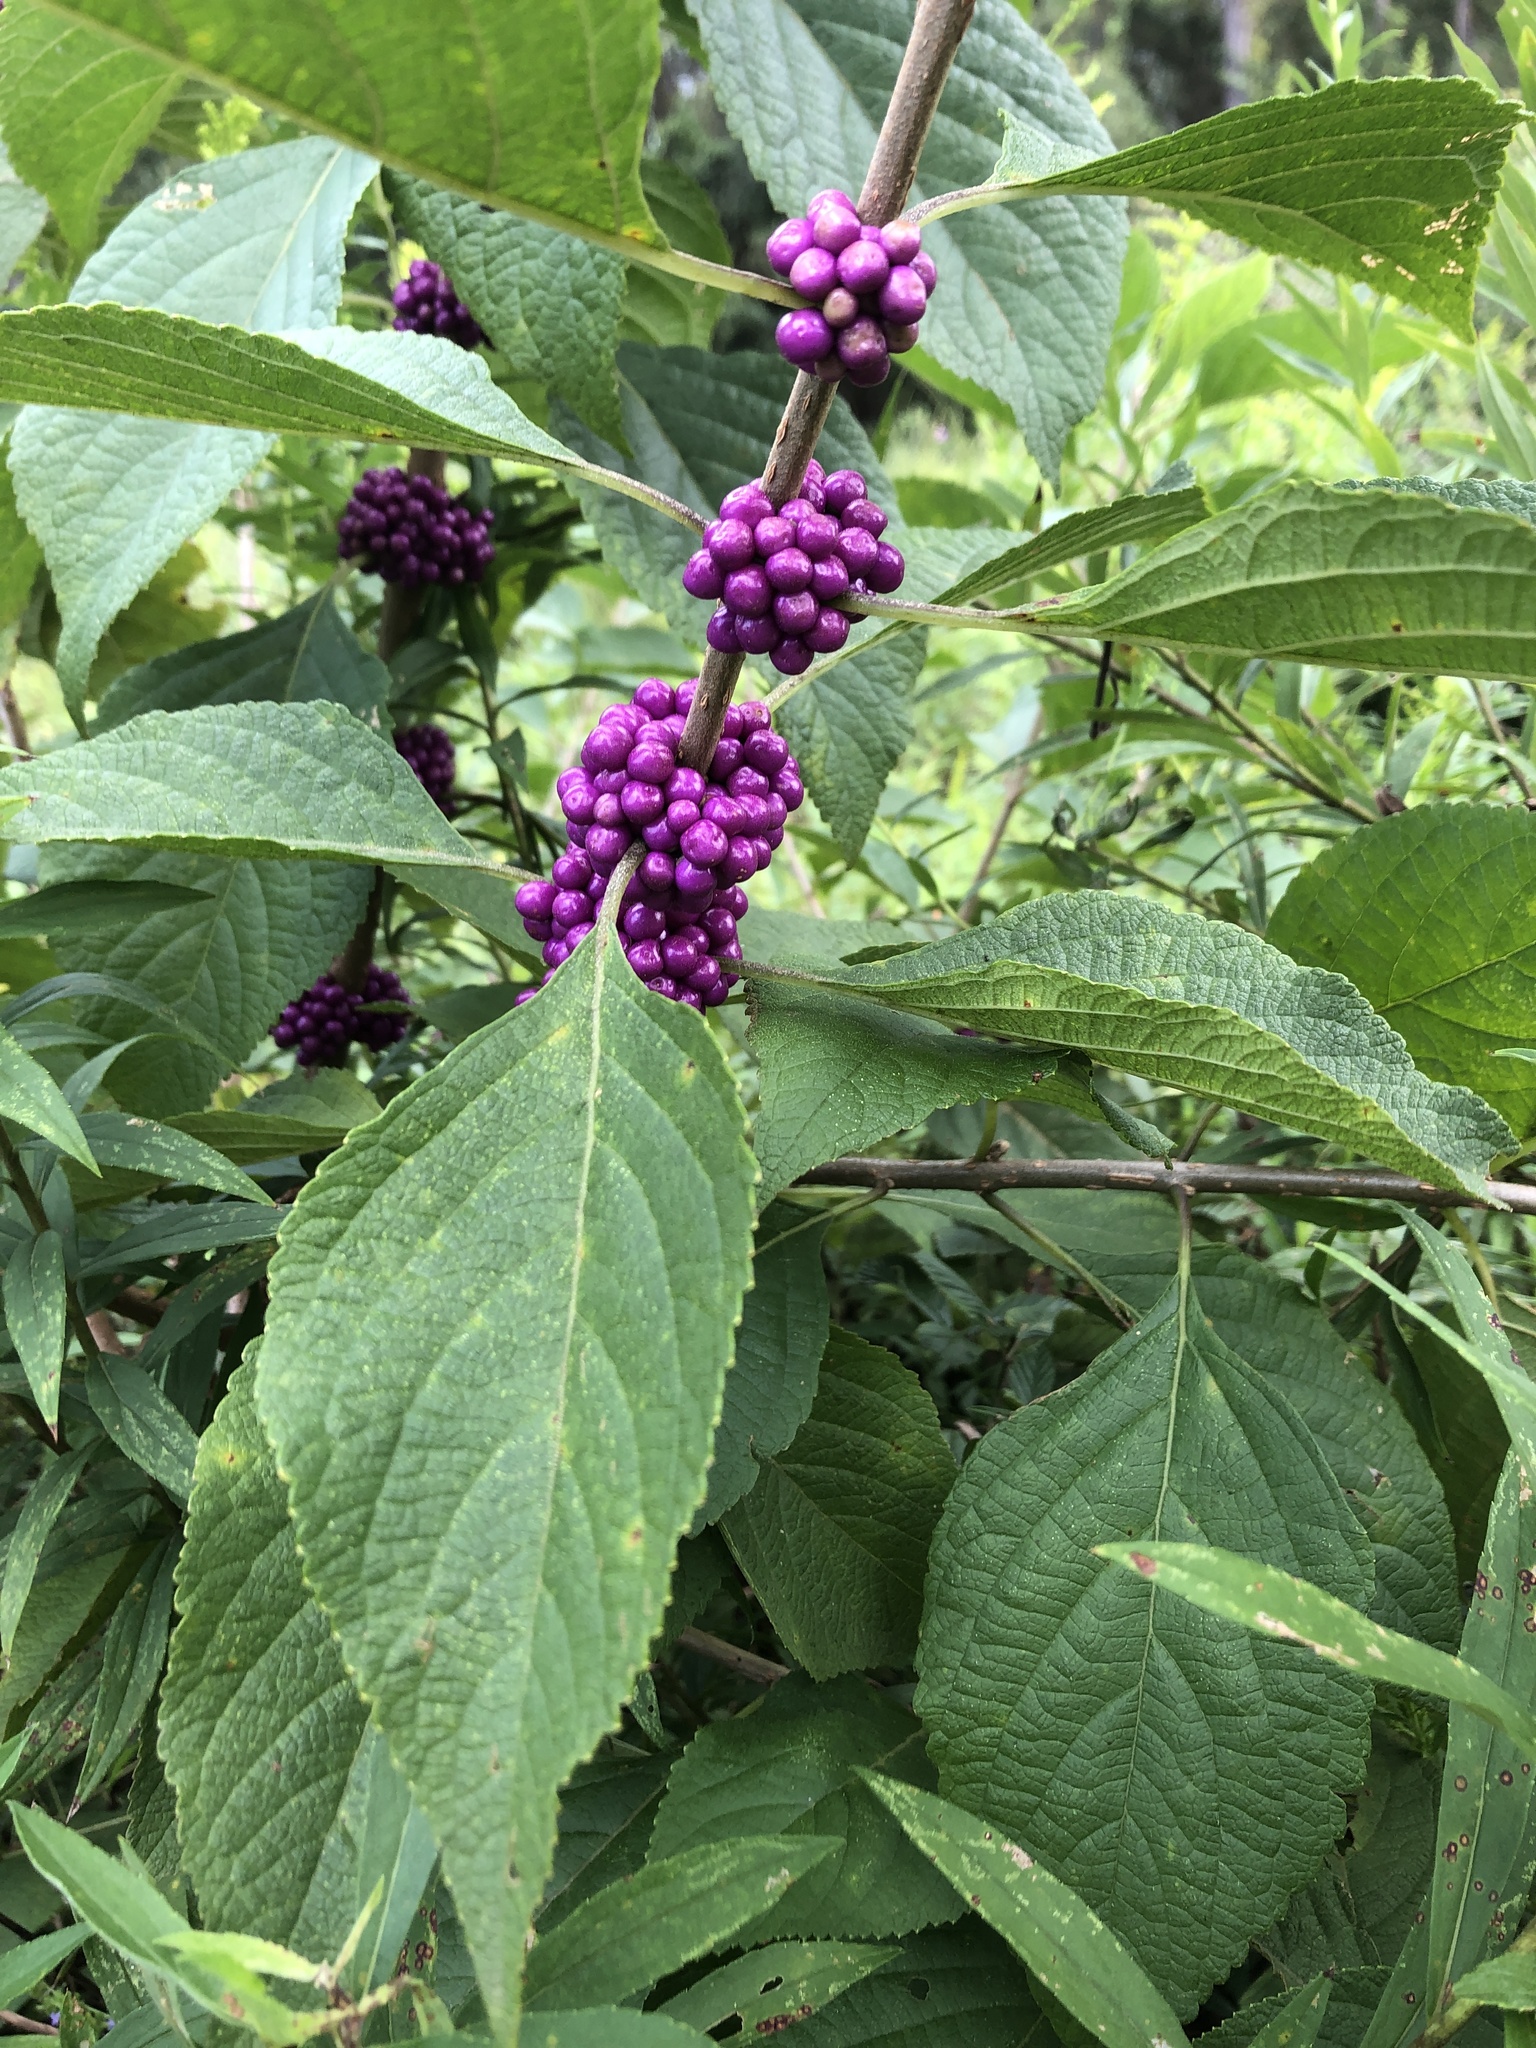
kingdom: Plantae
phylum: Tracheophyta
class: Magnoliopsida
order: Lamiales
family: Lamiaceae
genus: Callicarpa
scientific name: Callicarpa americana
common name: American beautyberry
